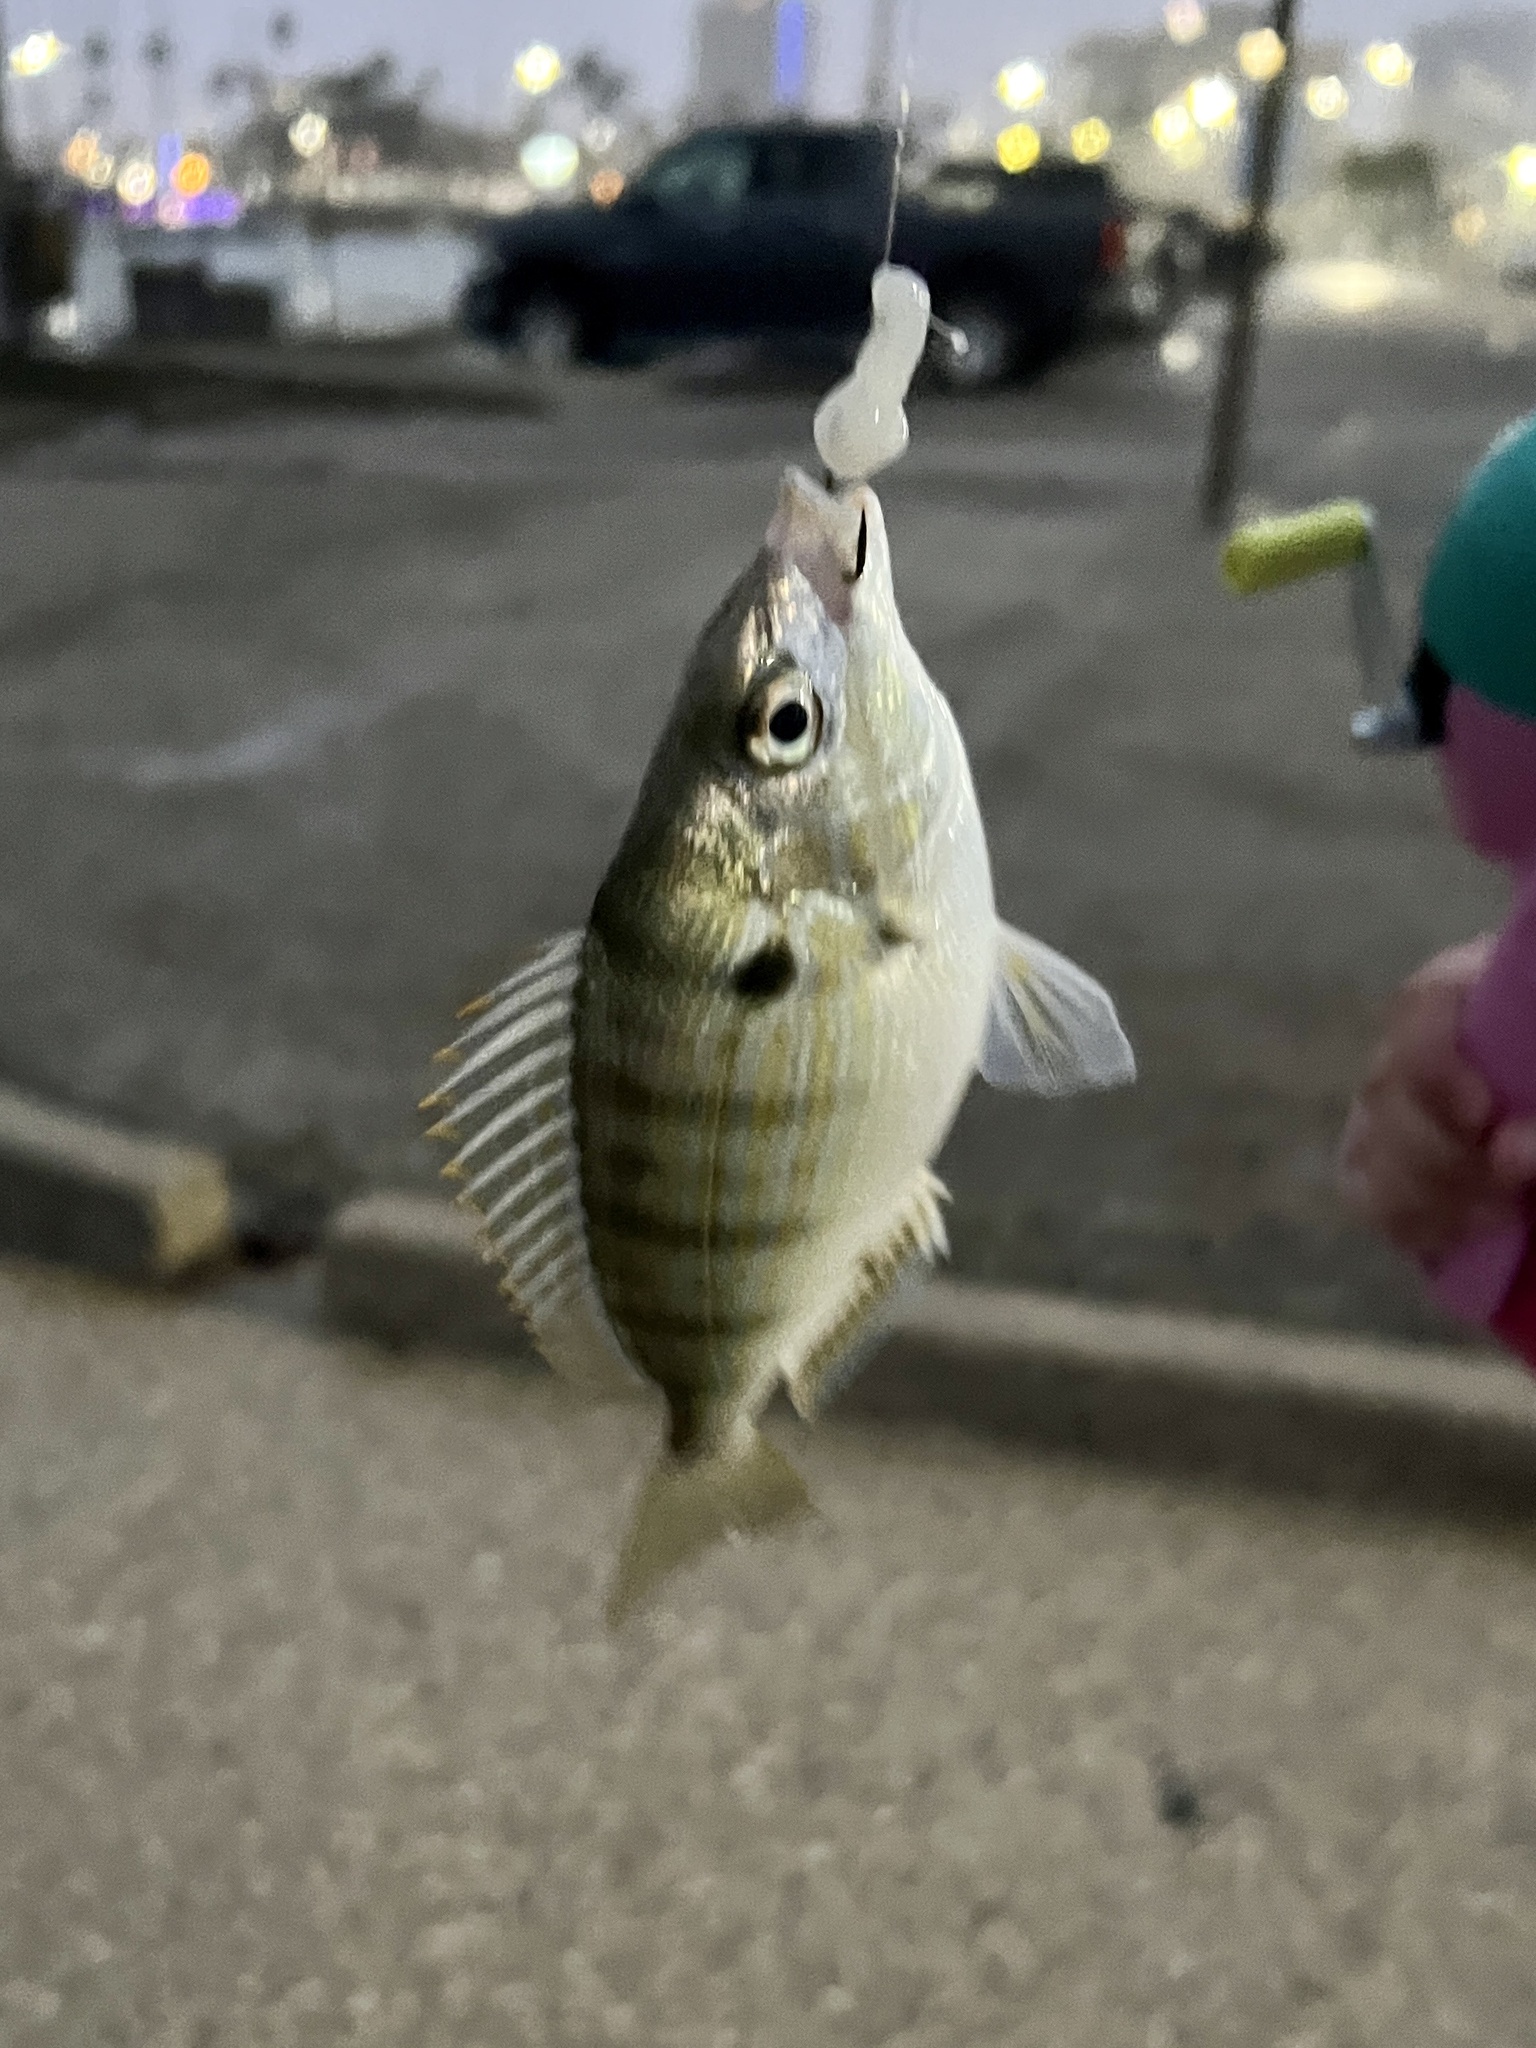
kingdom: Animalia
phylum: Chordata
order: Perciformes
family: Sparidae
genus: Lagodon
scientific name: Lagodon rhomboides
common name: Pinfish
